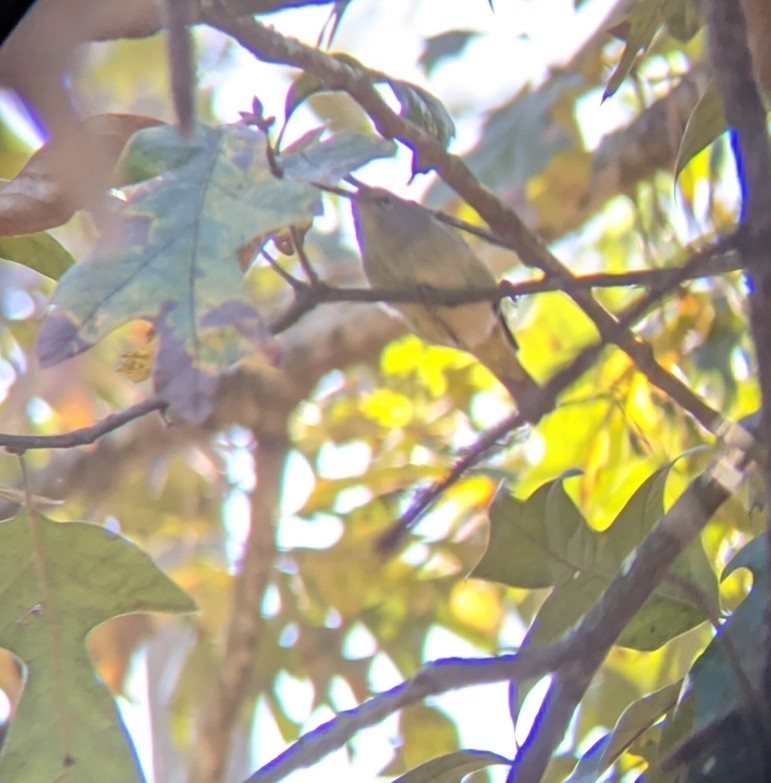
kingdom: Animalia
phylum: Chordata
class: Aves
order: Passeriformes
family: Parulidae
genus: Leiothlypis
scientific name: Leiothlypis celata
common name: Orange-crowned warbler
